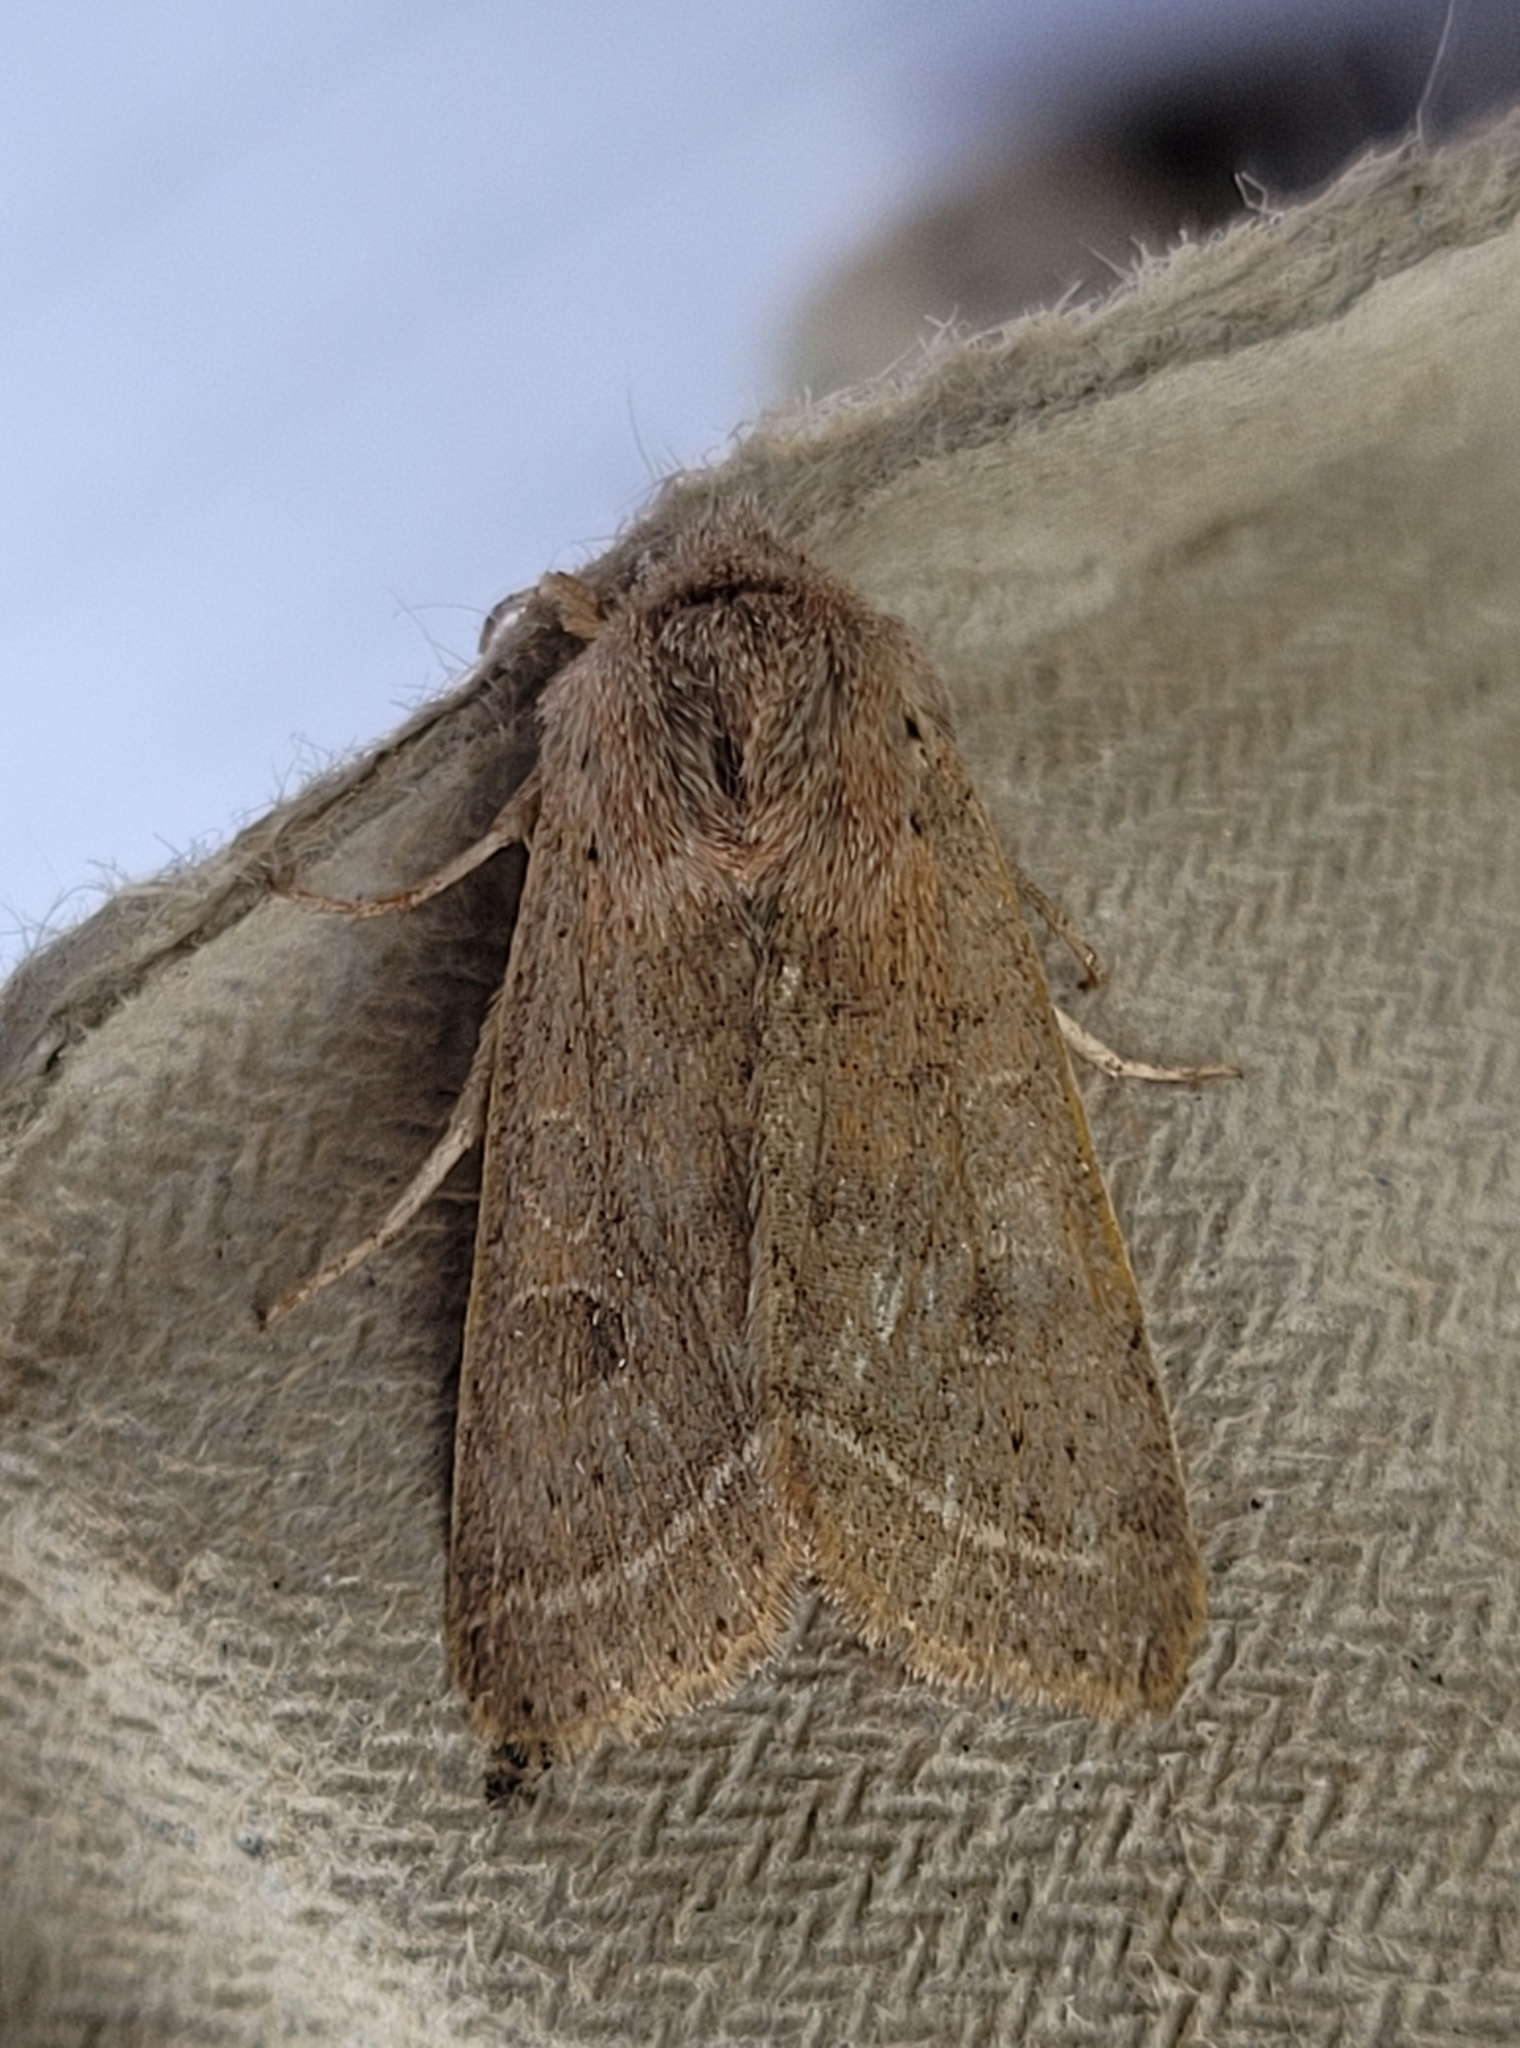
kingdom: Animalia
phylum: Arthropoda
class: Insecta
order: Lepidoptera
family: Noctuidae
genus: Orthosia
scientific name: Orthosia cerasi
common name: Common quaker
